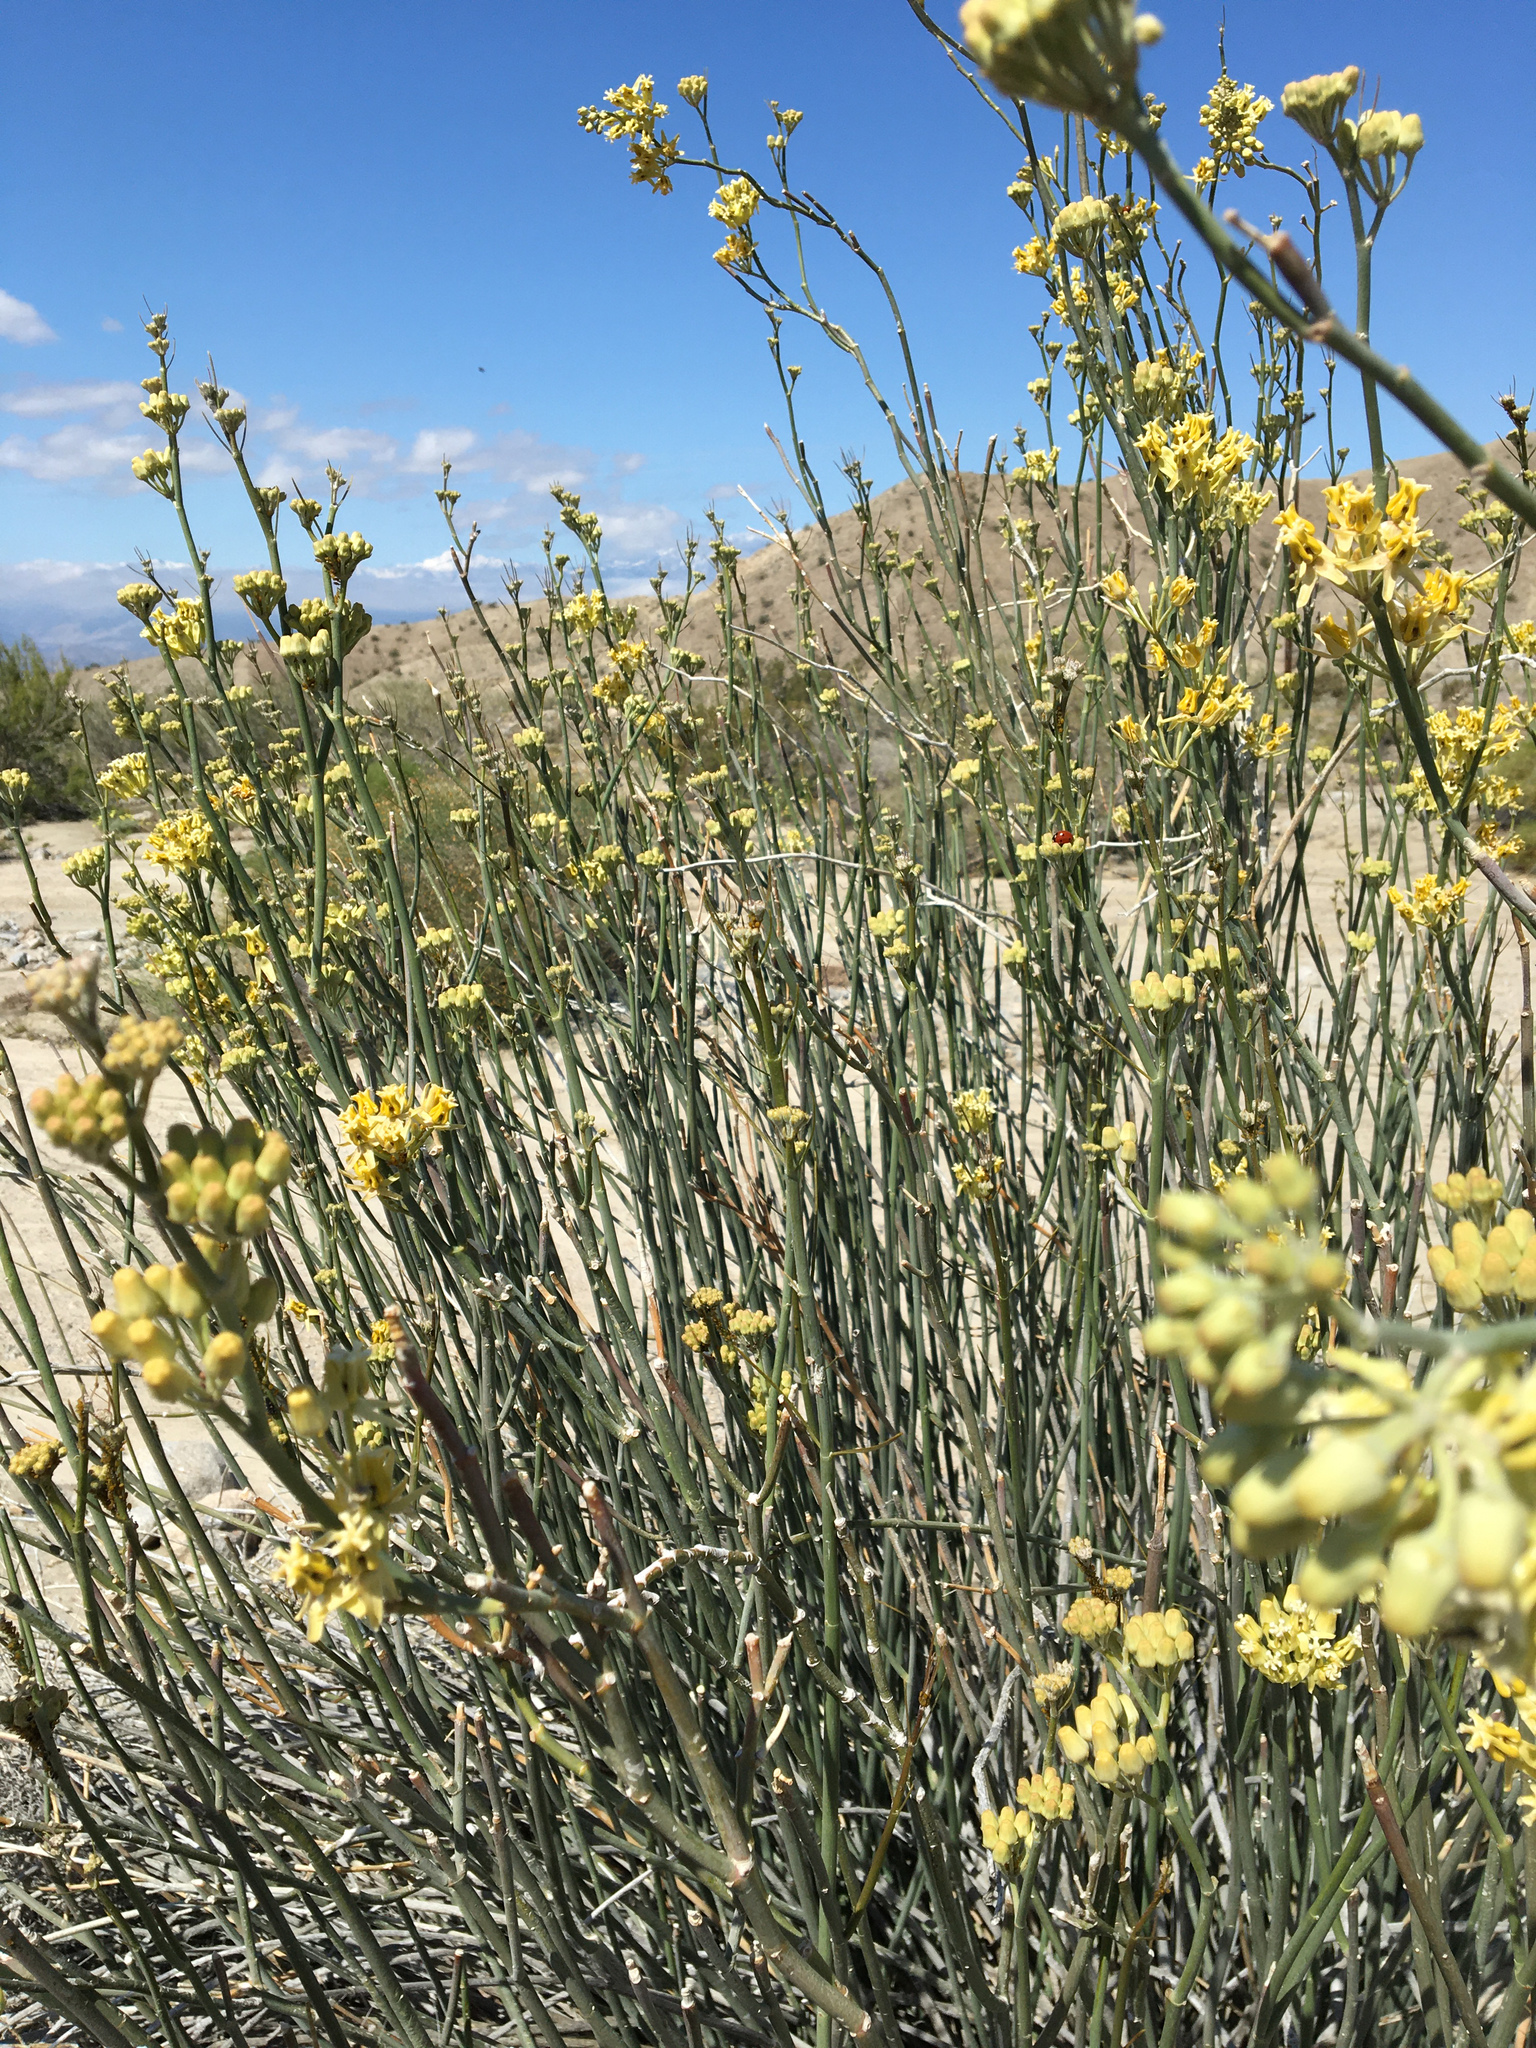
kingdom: Plantae
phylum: Tracheophyta
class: Magnoliopsida
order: Gentianales
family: Apocynaceae
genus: Asclepias
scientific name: Asclepias subulata
